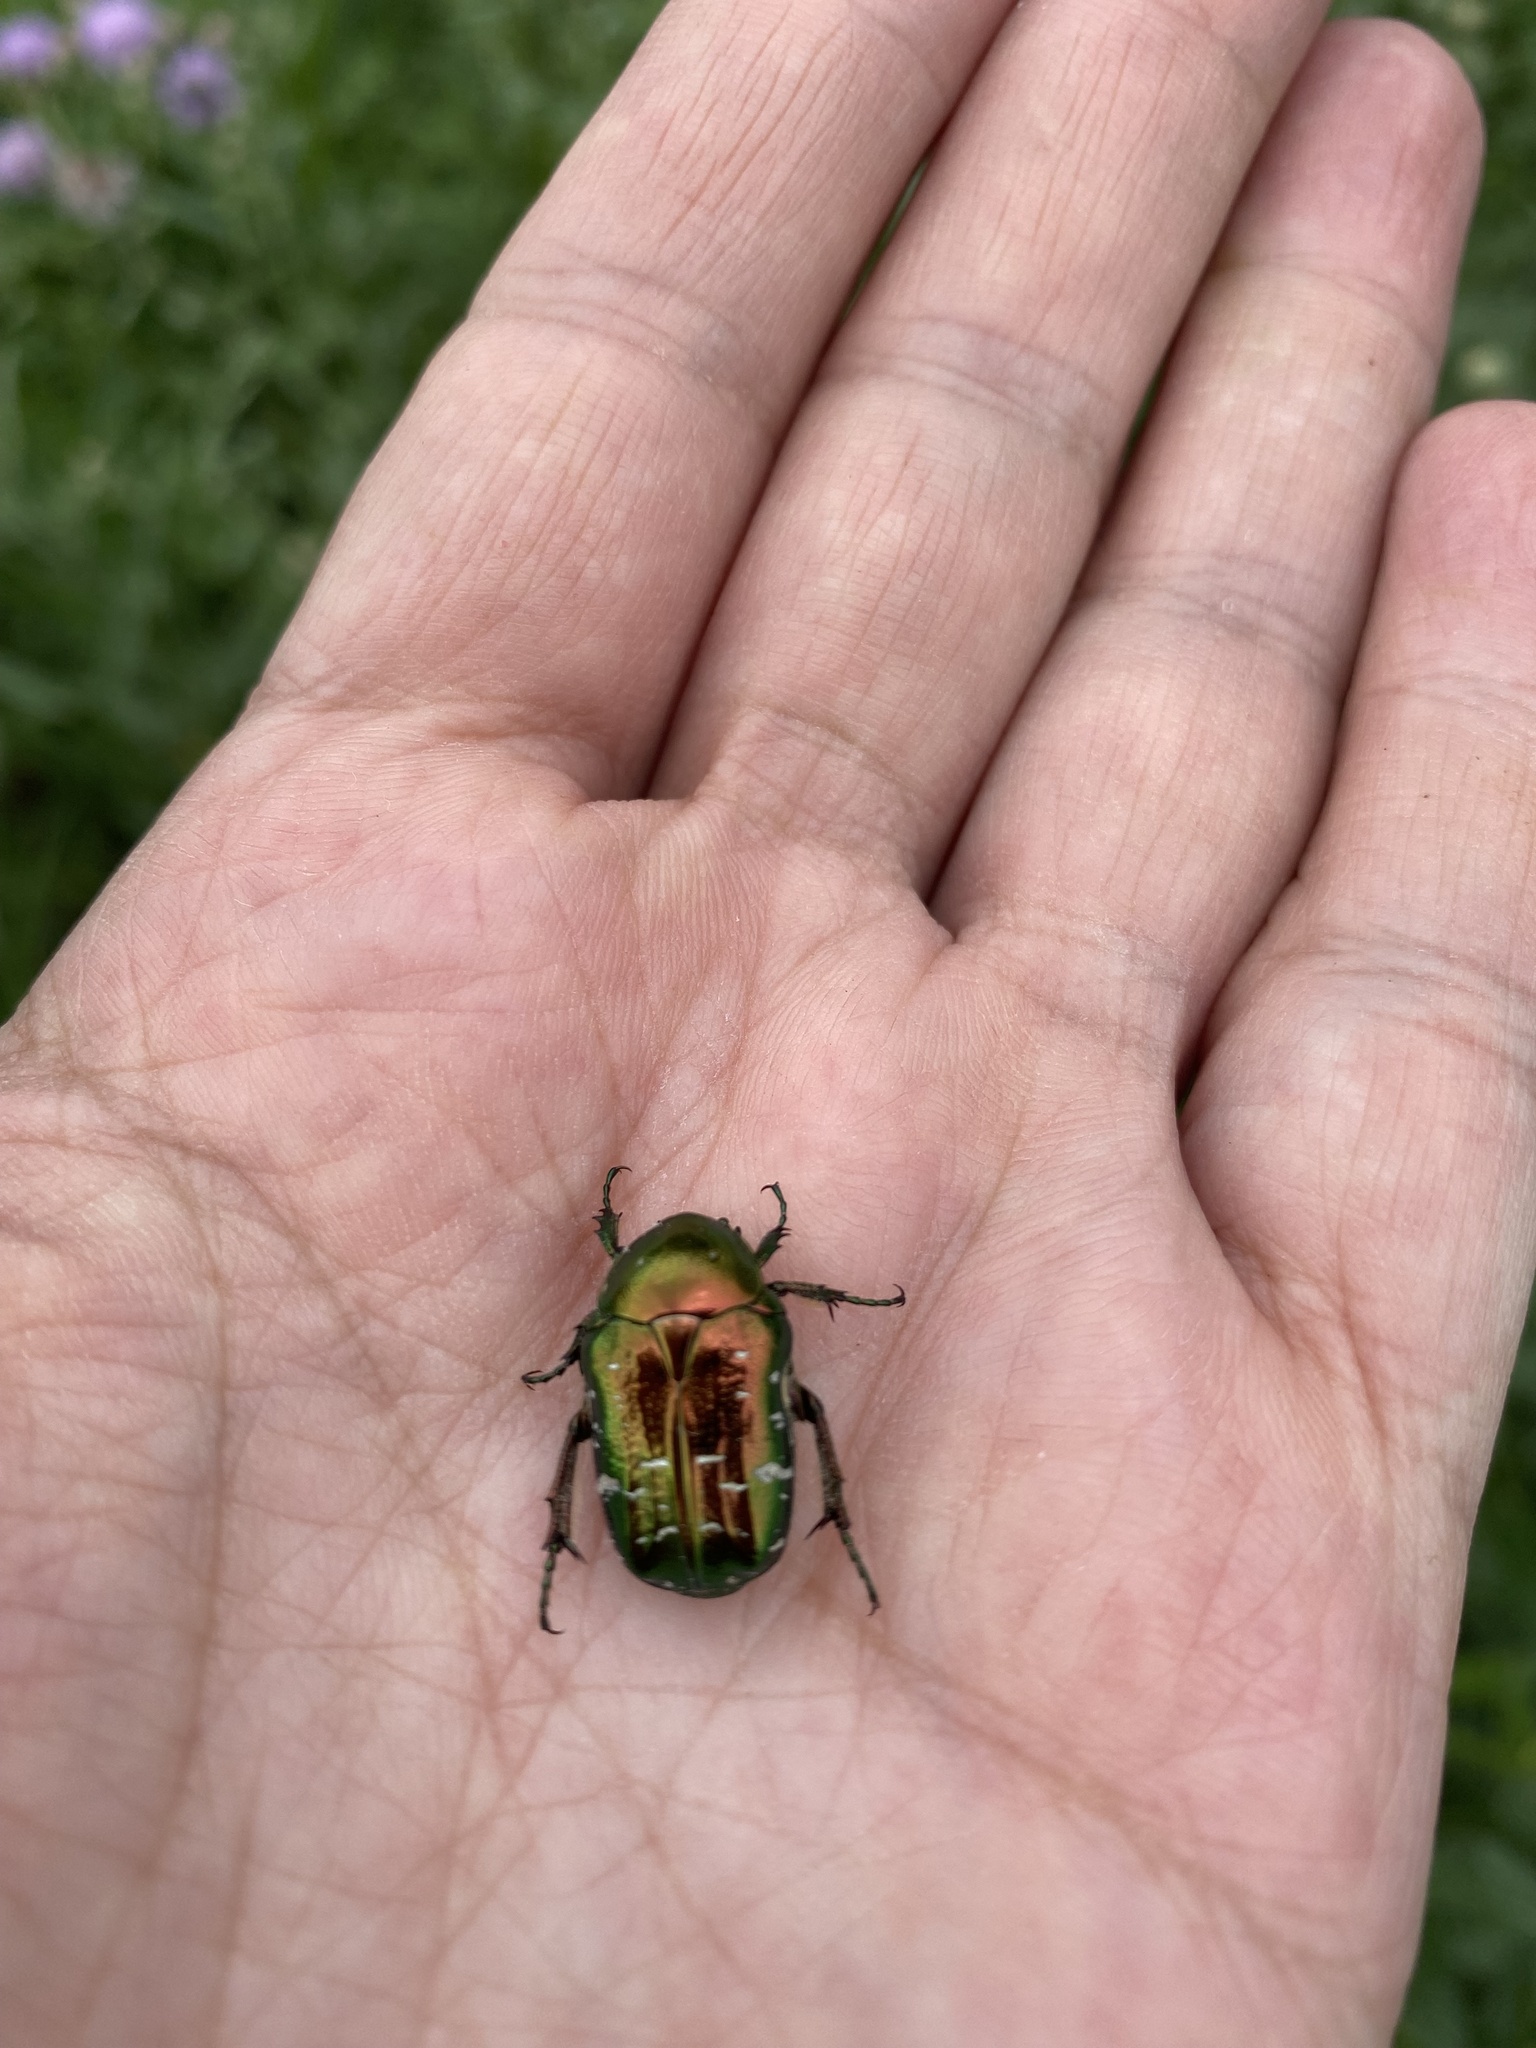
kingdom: Animalia
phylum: Arthropoda
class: Insecta
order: Coleoptera
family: Scarabaeidae
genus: Cetonia
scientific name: Cetonia aurata
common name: Rose chafer
